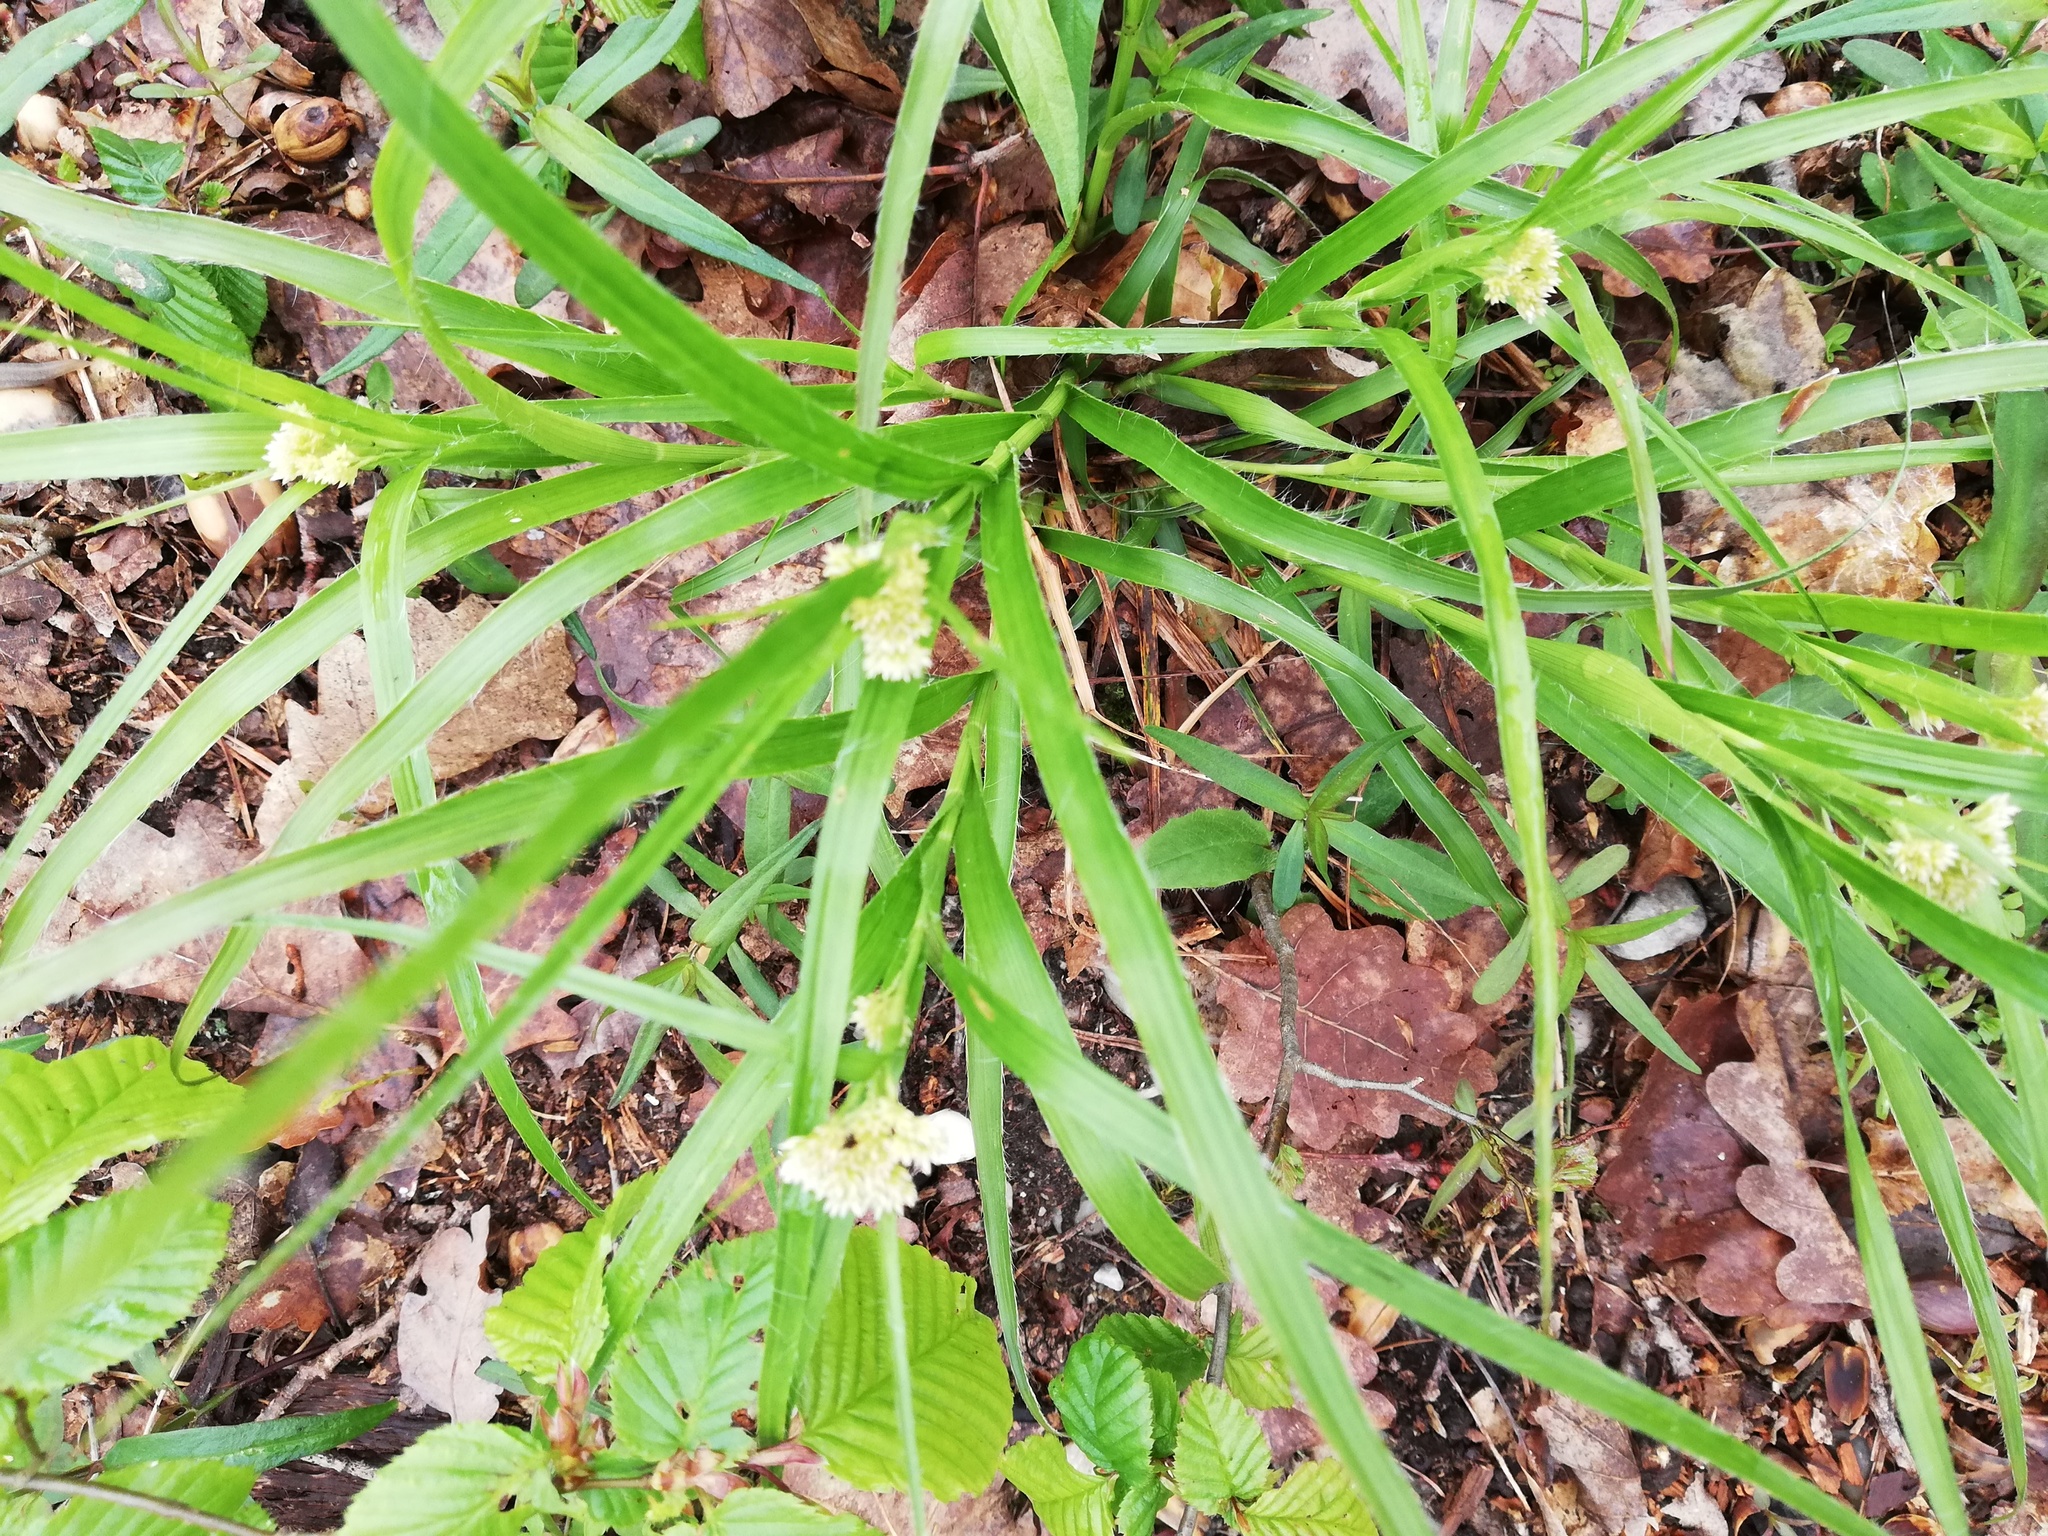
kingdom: Plantae
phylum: Tracheophyta
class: Liliopsida
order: Poales
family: Juncaceae
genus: Luzula
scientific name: Luzula luzuloides
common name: White wood-rush
